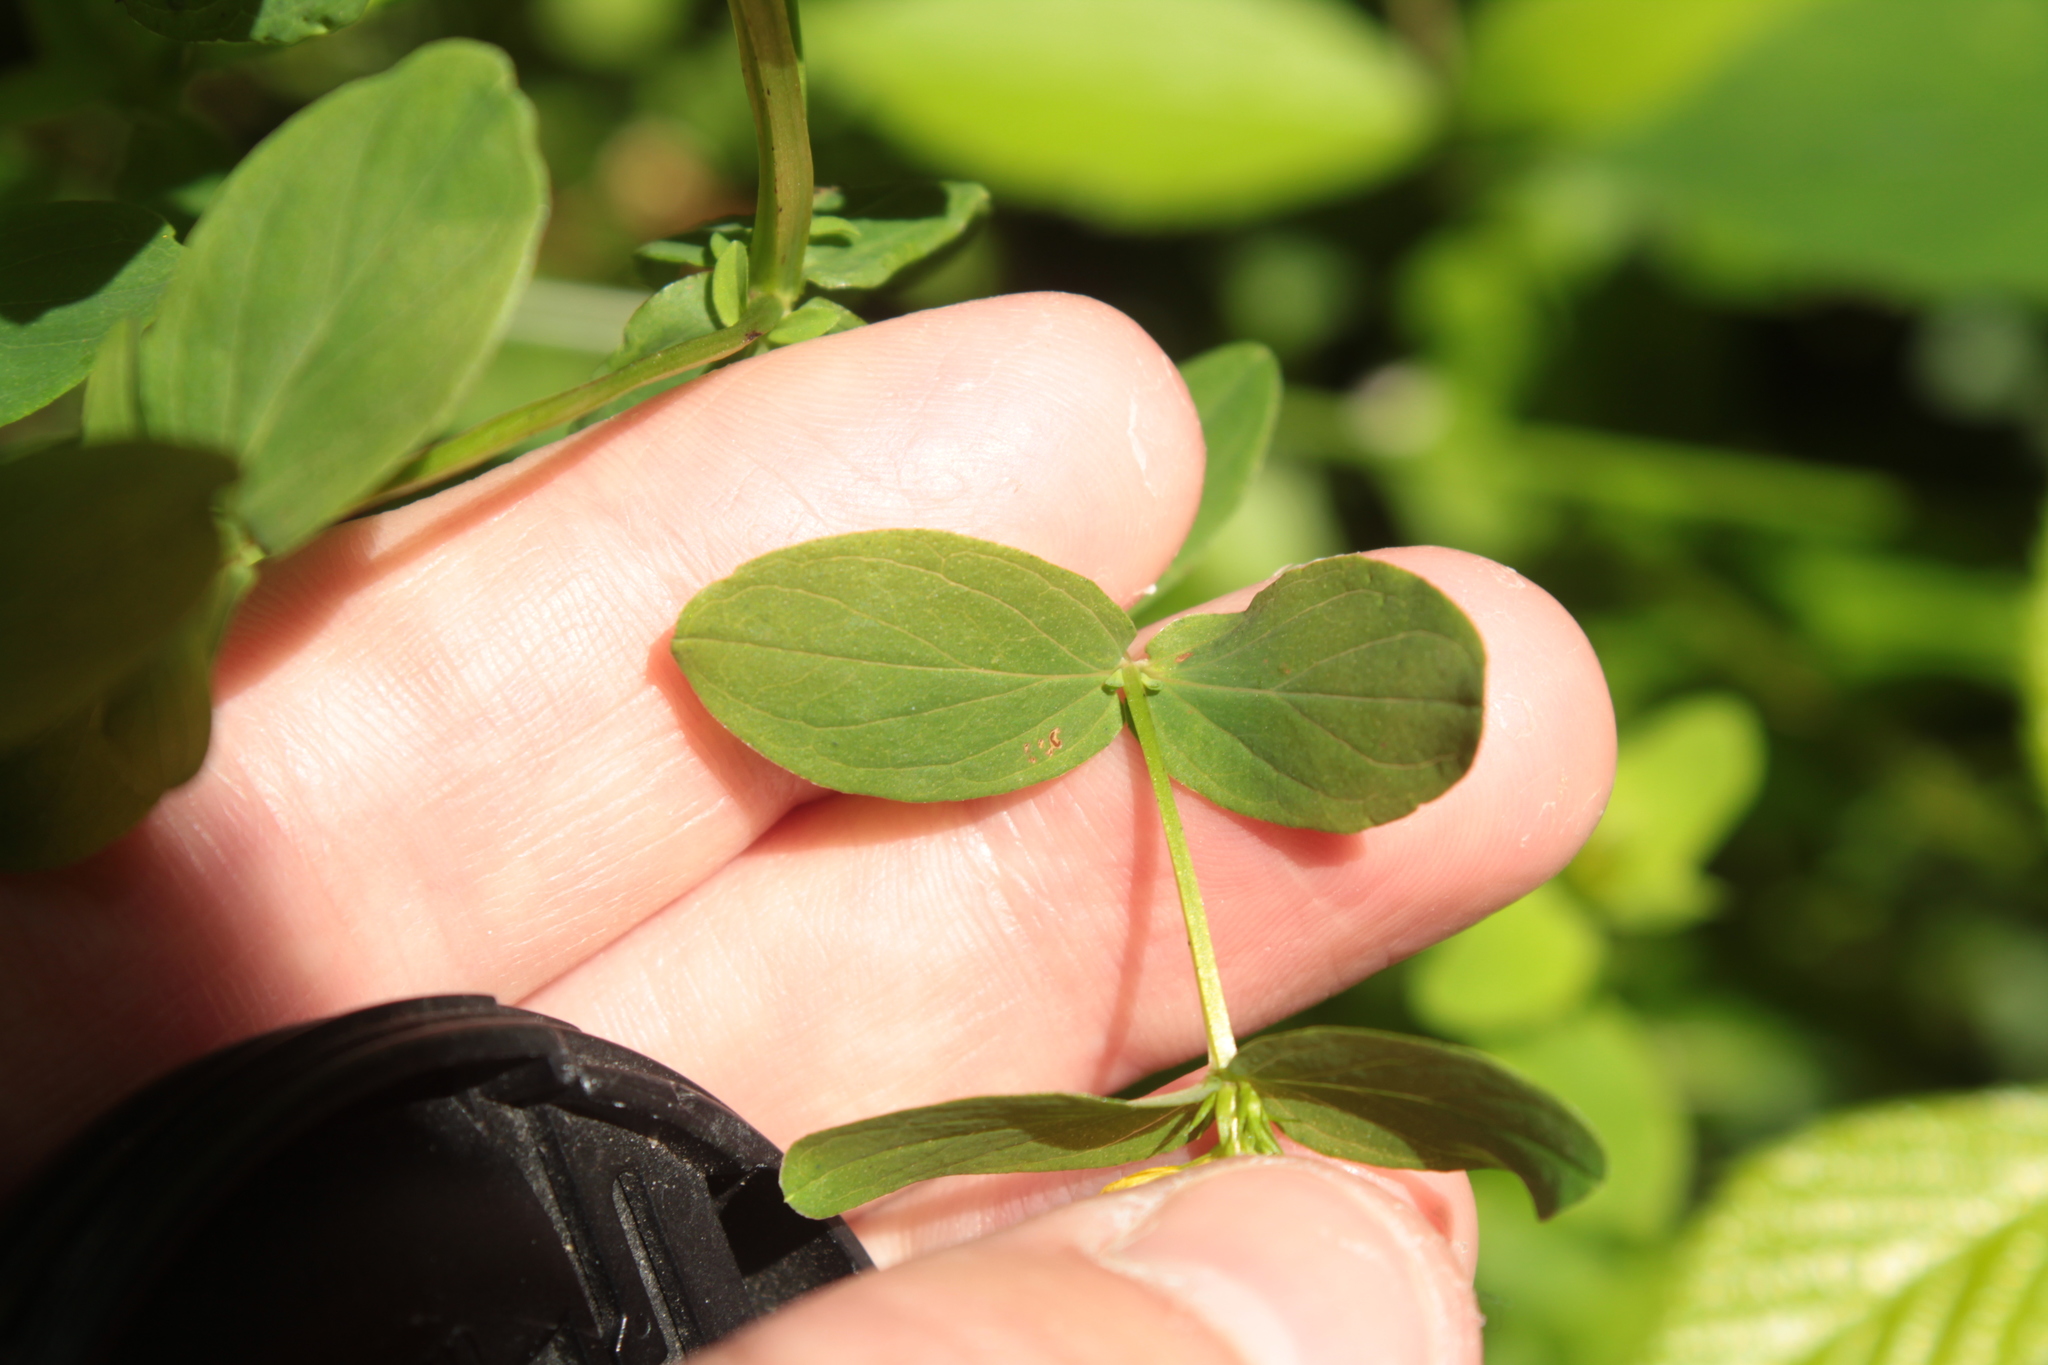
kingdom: Plantae
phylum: Tracheophyta
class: Magnoliopsida
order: Malpighiales
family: Hypericaceae
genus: Hypericum
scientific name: Hypericum tetrapterum
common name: Square-stalked st. john's-wort
